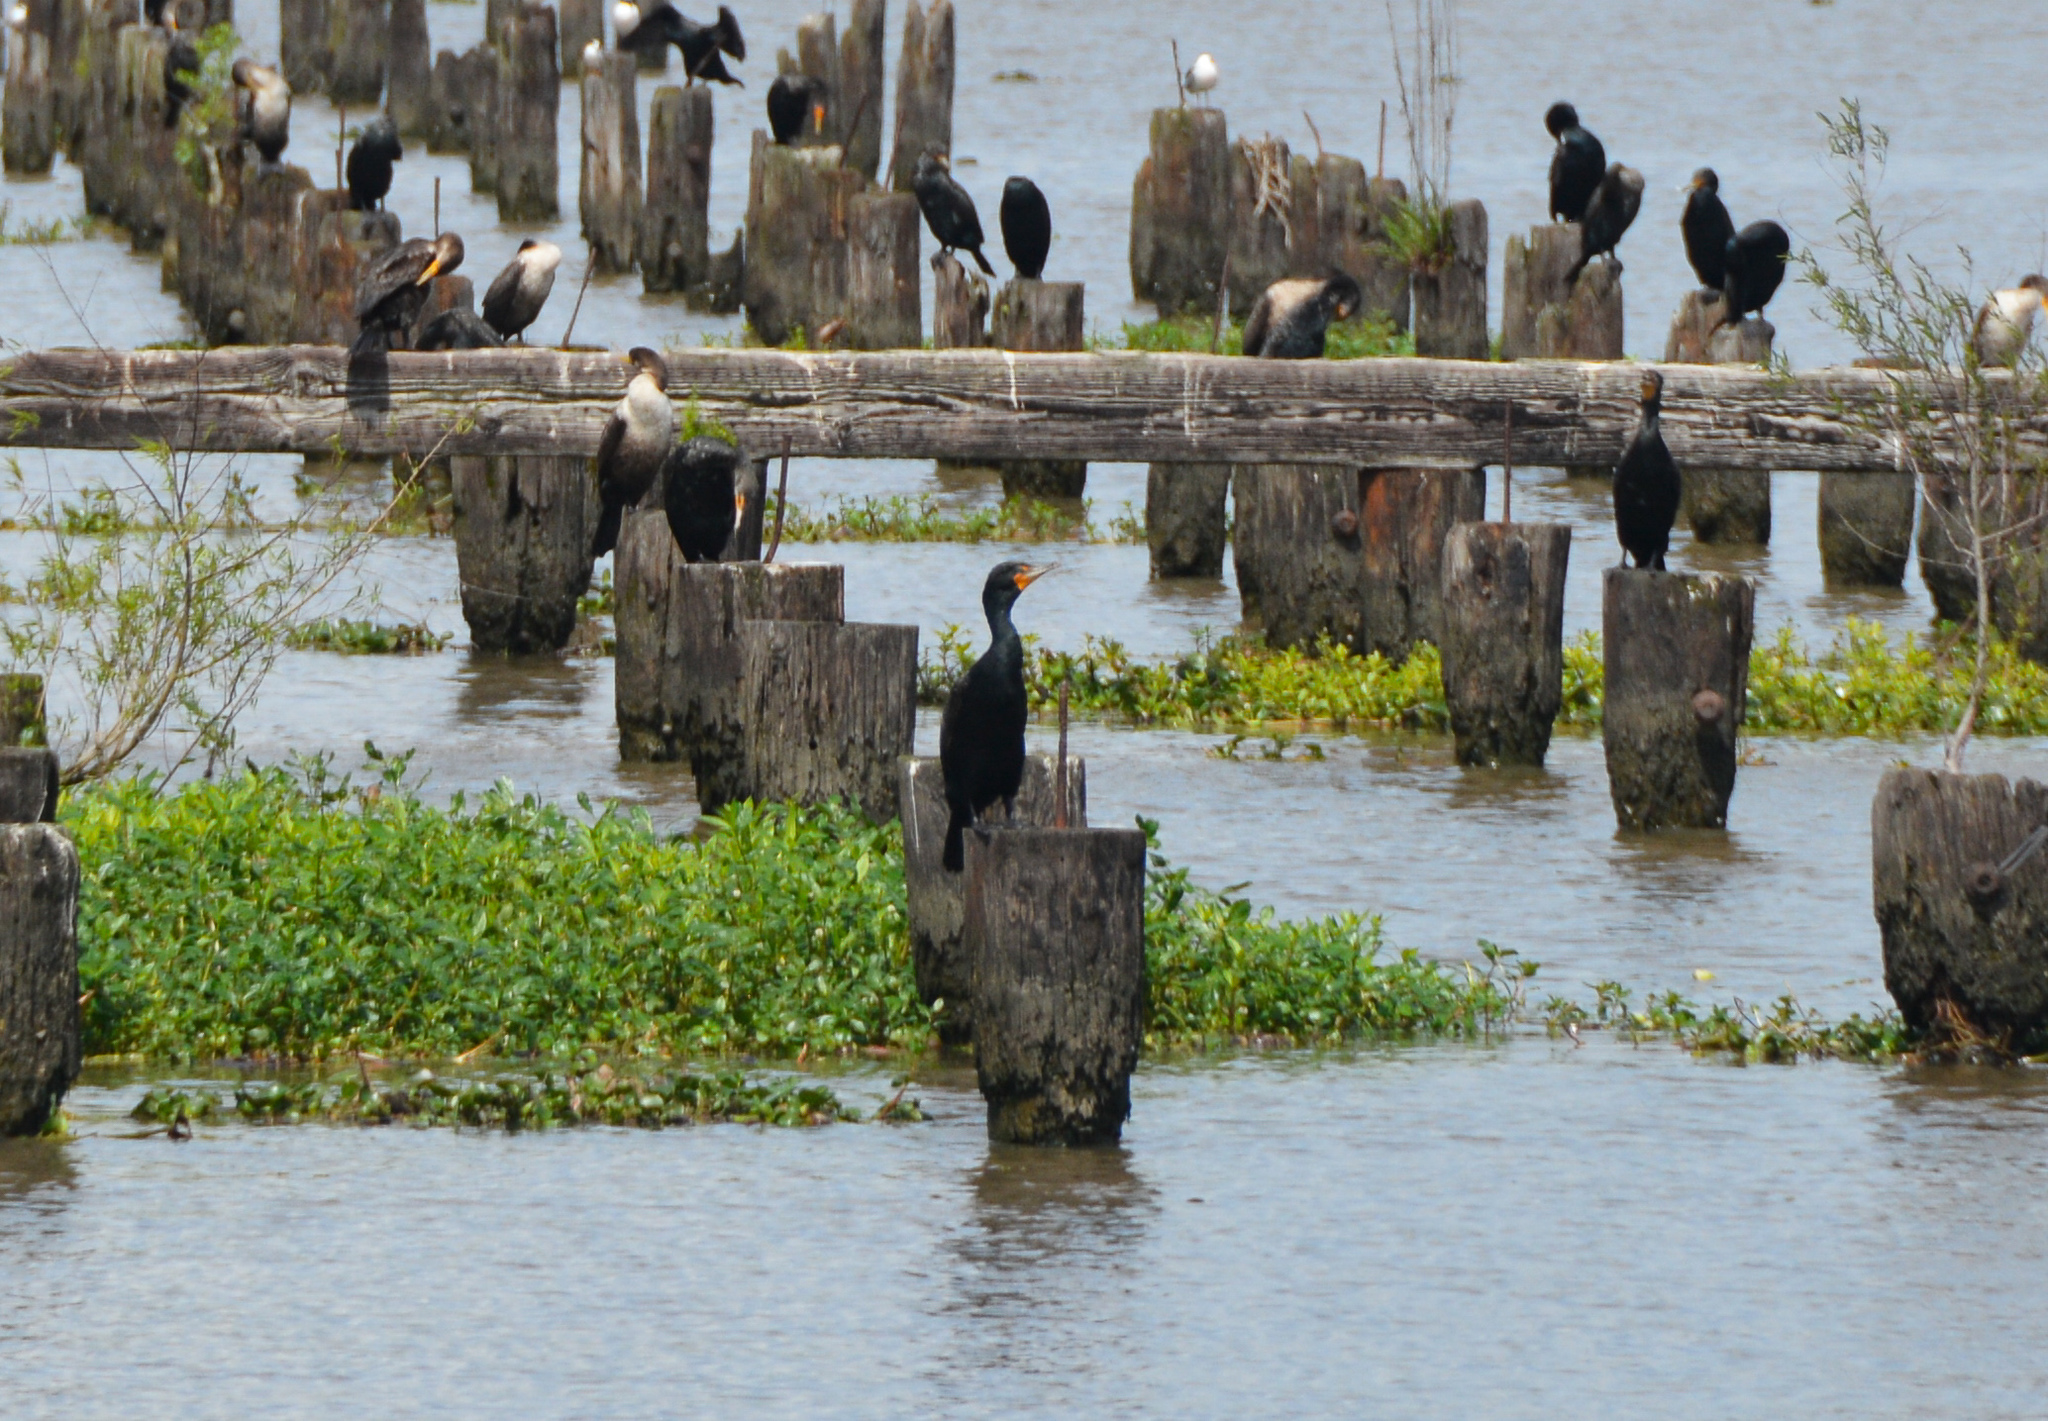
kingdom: Animalia
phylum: Chordata
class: Aves
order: Suliformes
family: Phalacrocoracidae
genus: Phalacrocorax
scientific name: Phalacrocorax auritus
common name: Double-crested cormorant
